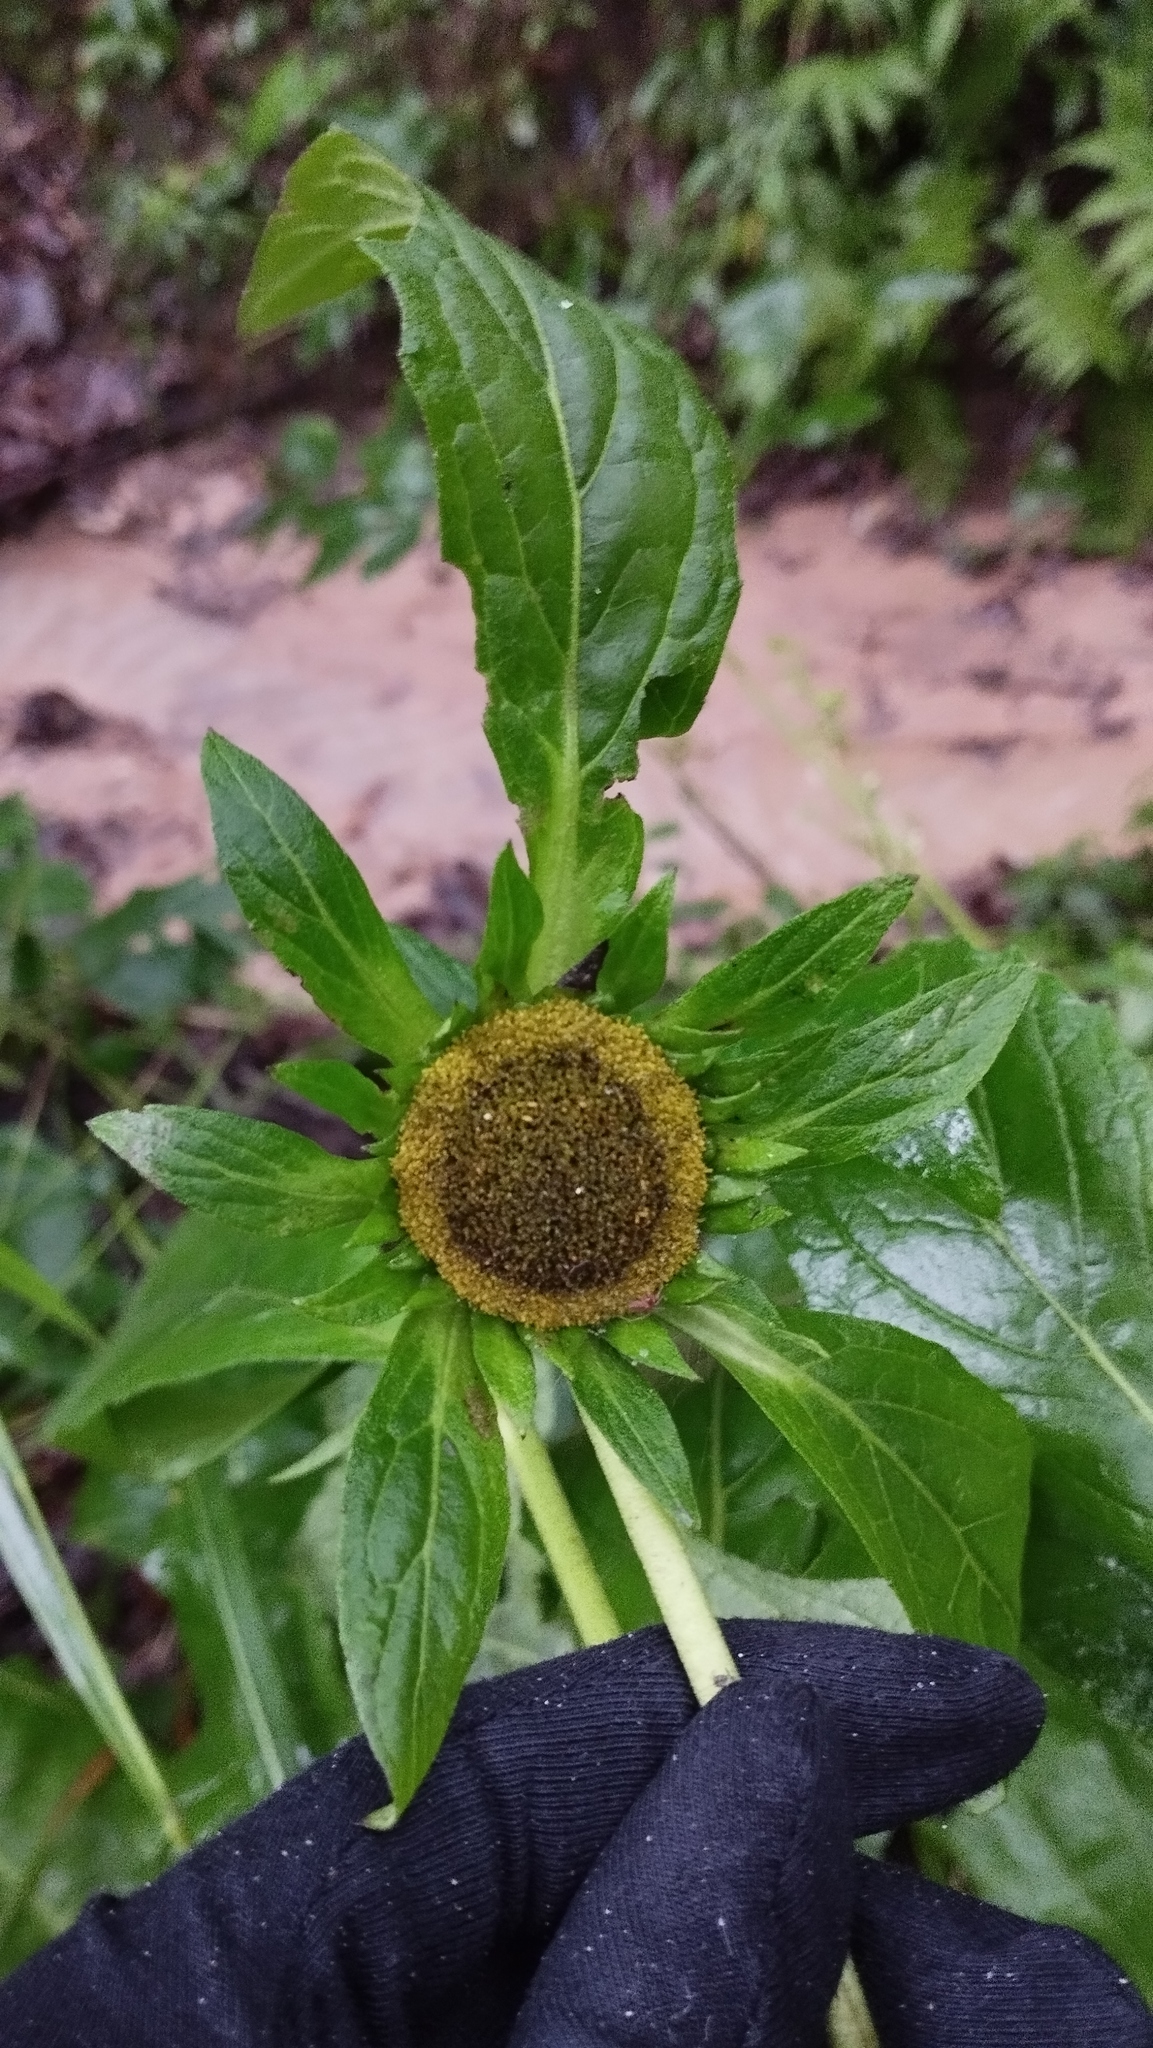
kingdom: Plantae
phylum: Tracheophyta
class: Magnoliopsida
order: Asterales
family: Asteraceae
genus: Carpesium
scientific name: Carpesium macrocephalum
